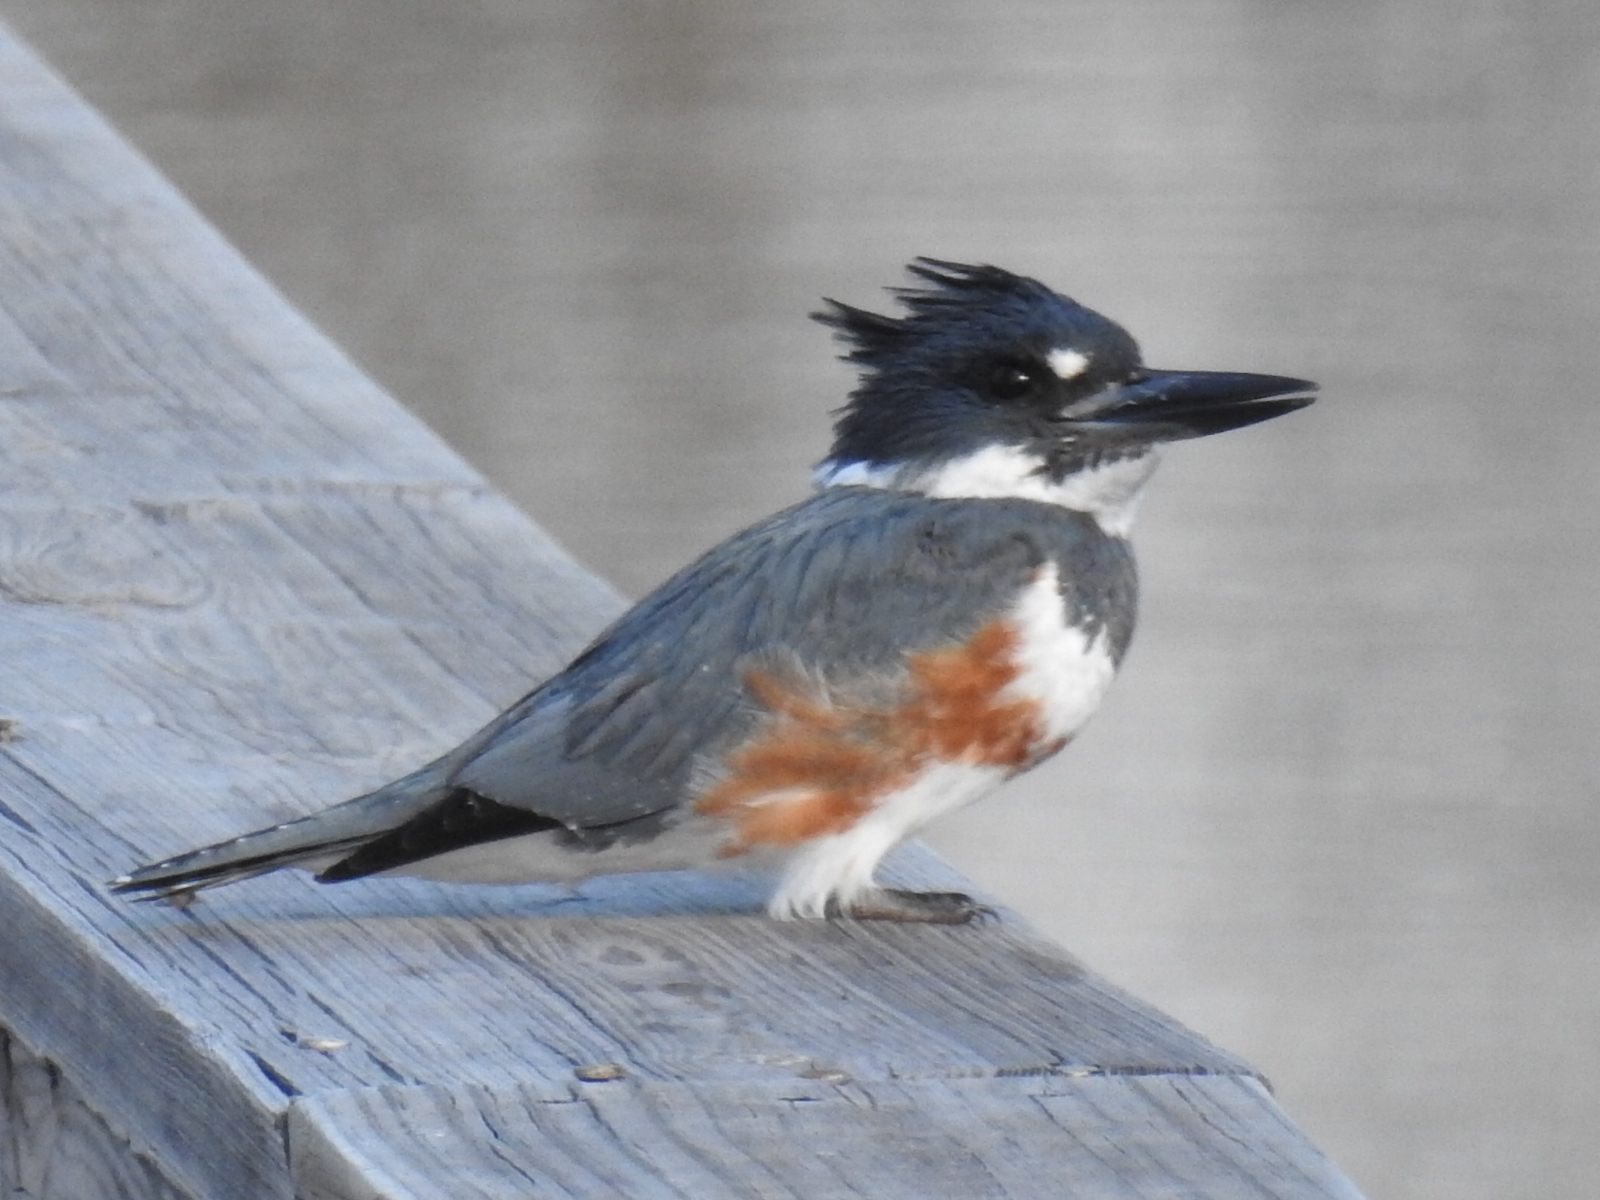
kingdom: Animalia
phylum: Chordata
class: Aves
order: Coraciiformes
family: Alcedinidae
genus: Megaceryle
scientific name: Megaceryle alcyon
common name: Belted kingfisher
